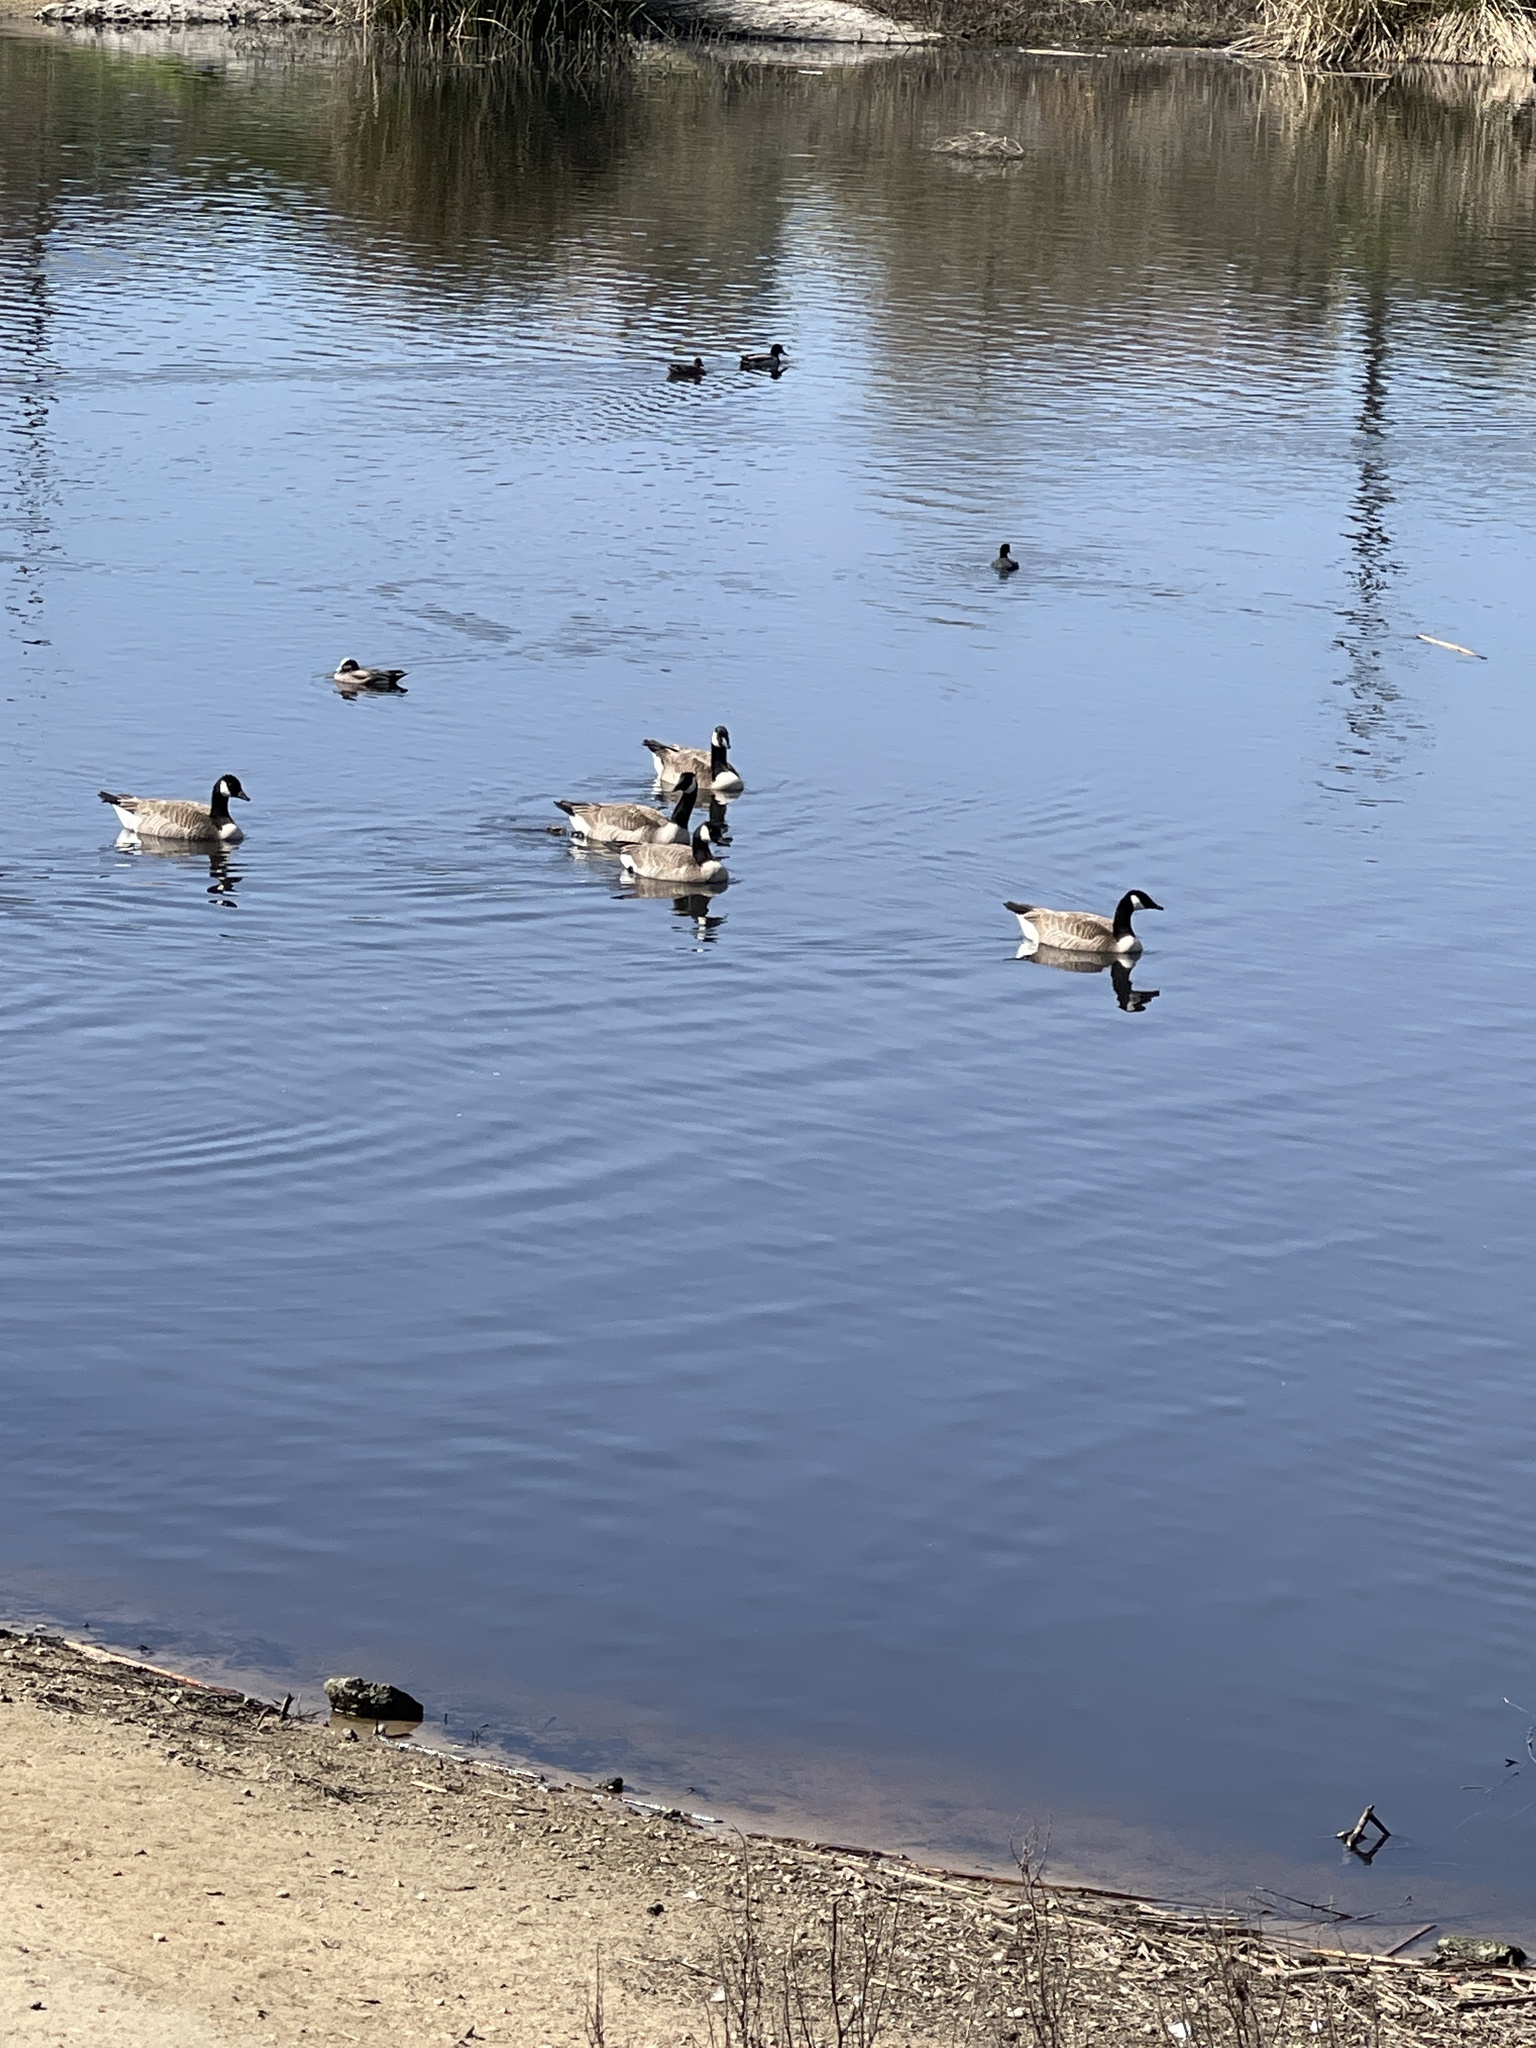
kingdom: Animalia
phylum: Chordata
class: Aves
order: Anseriformes
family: Anatidae
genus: Branta
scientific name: Branta canadensis
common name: Canada goose
